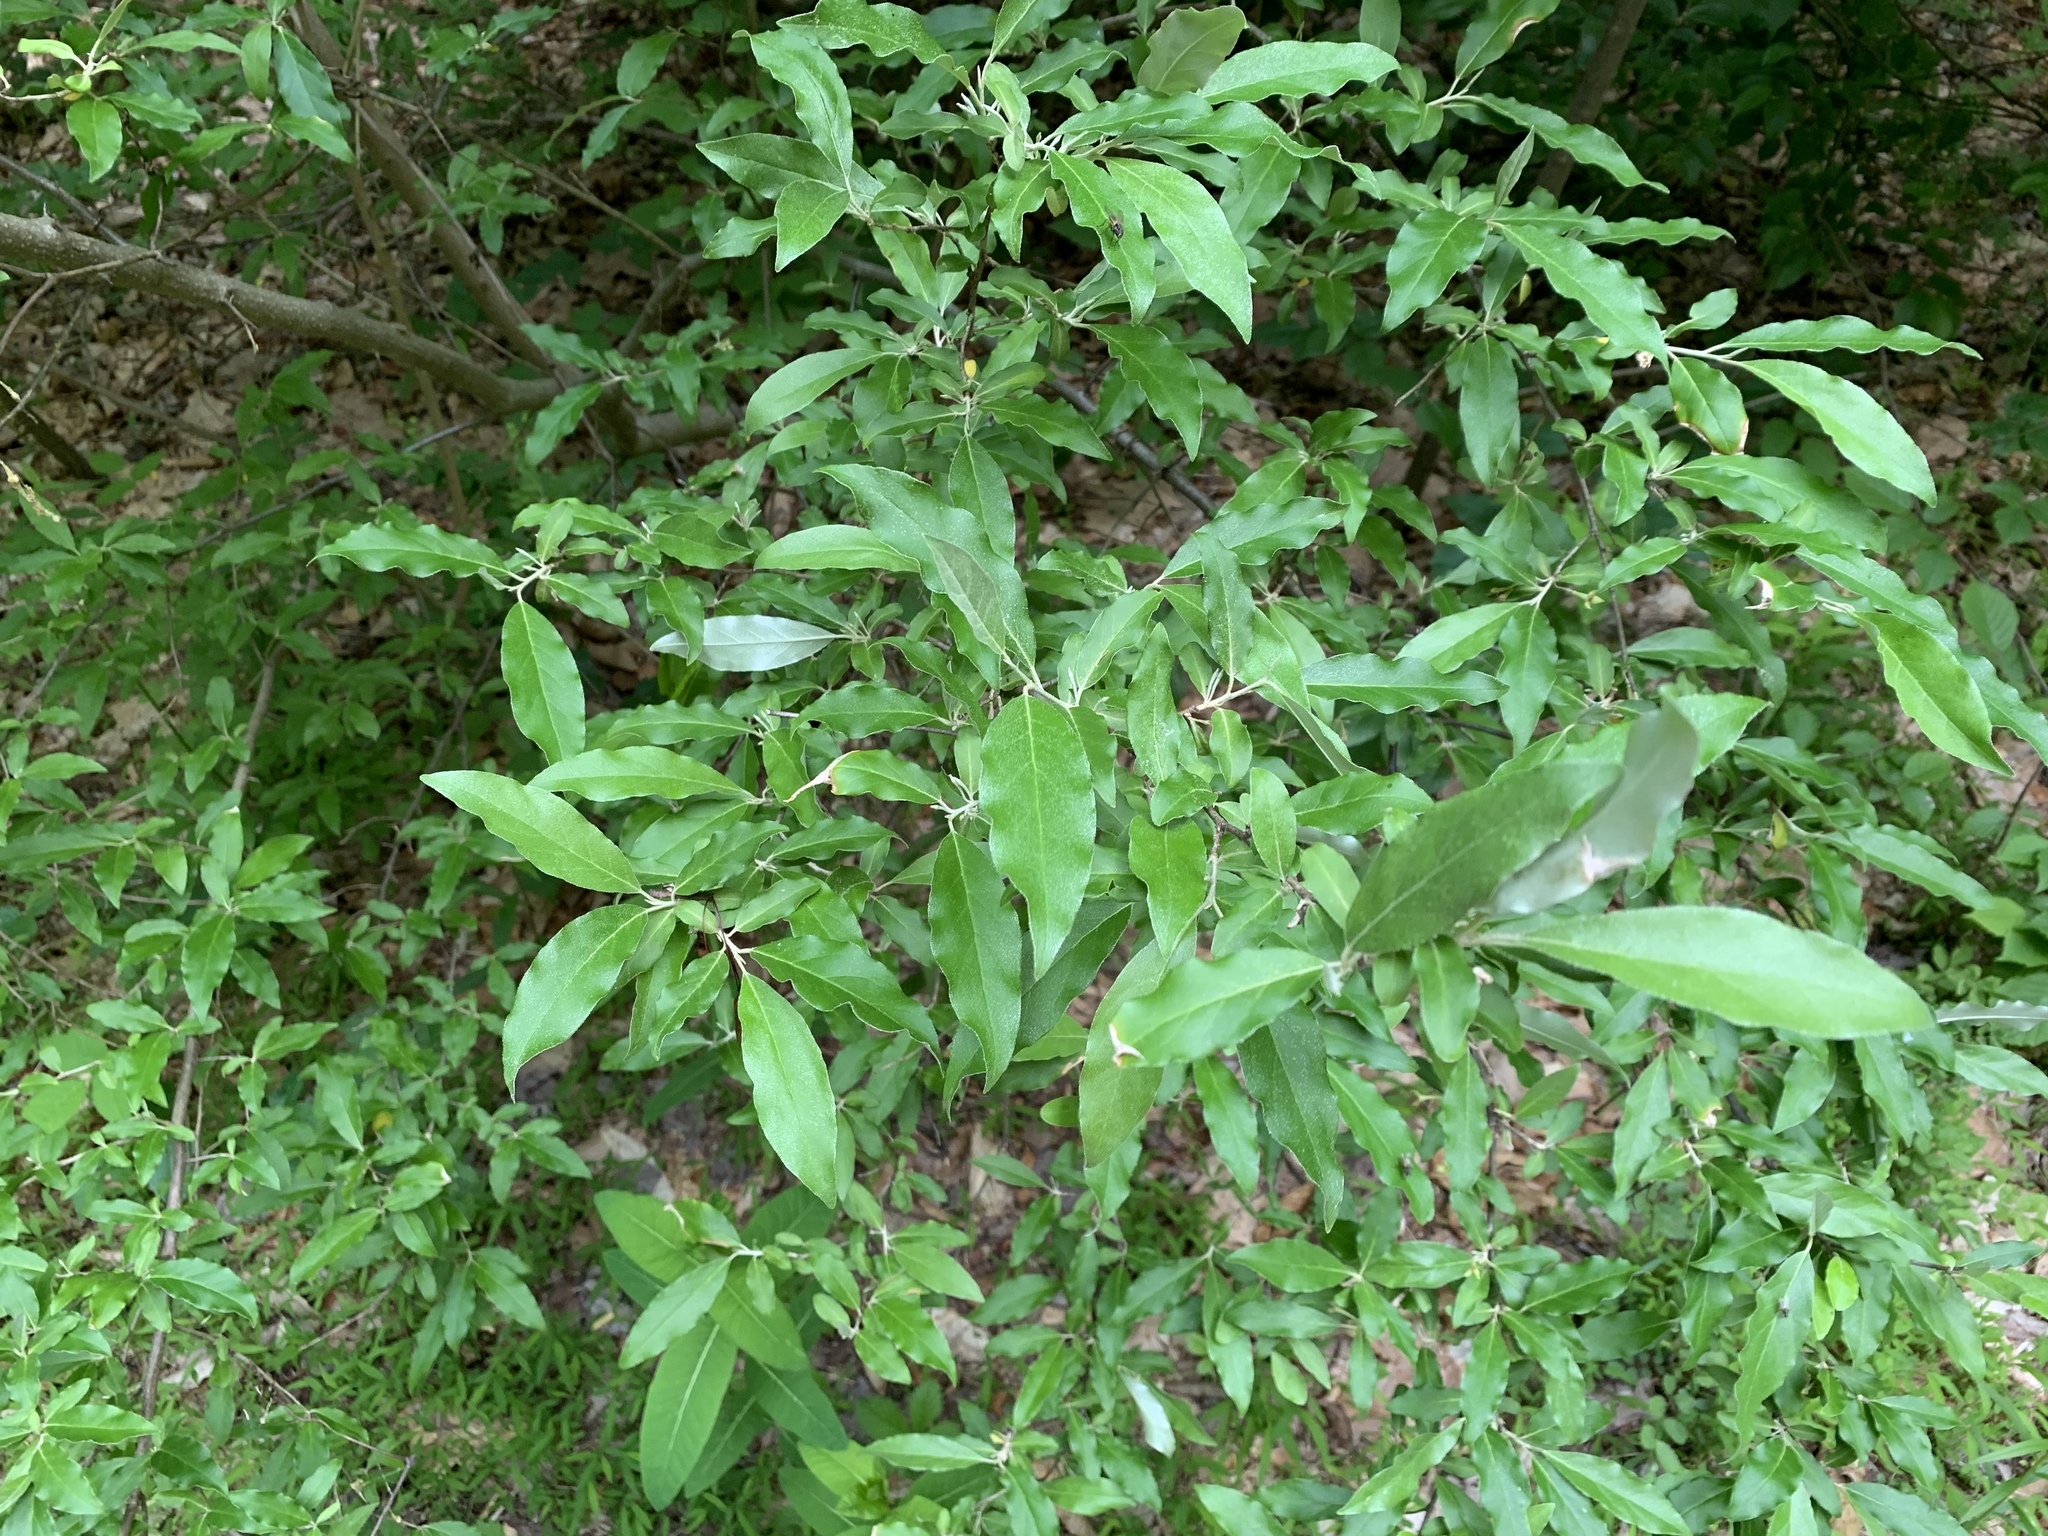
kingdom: Plantae
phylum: Tracheophyta
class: Magnoliopsida
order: Rosales
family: Elaeagnaceae
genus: Elaeagnus
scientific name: Elaeagnus umbellata
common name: Autumn olive
